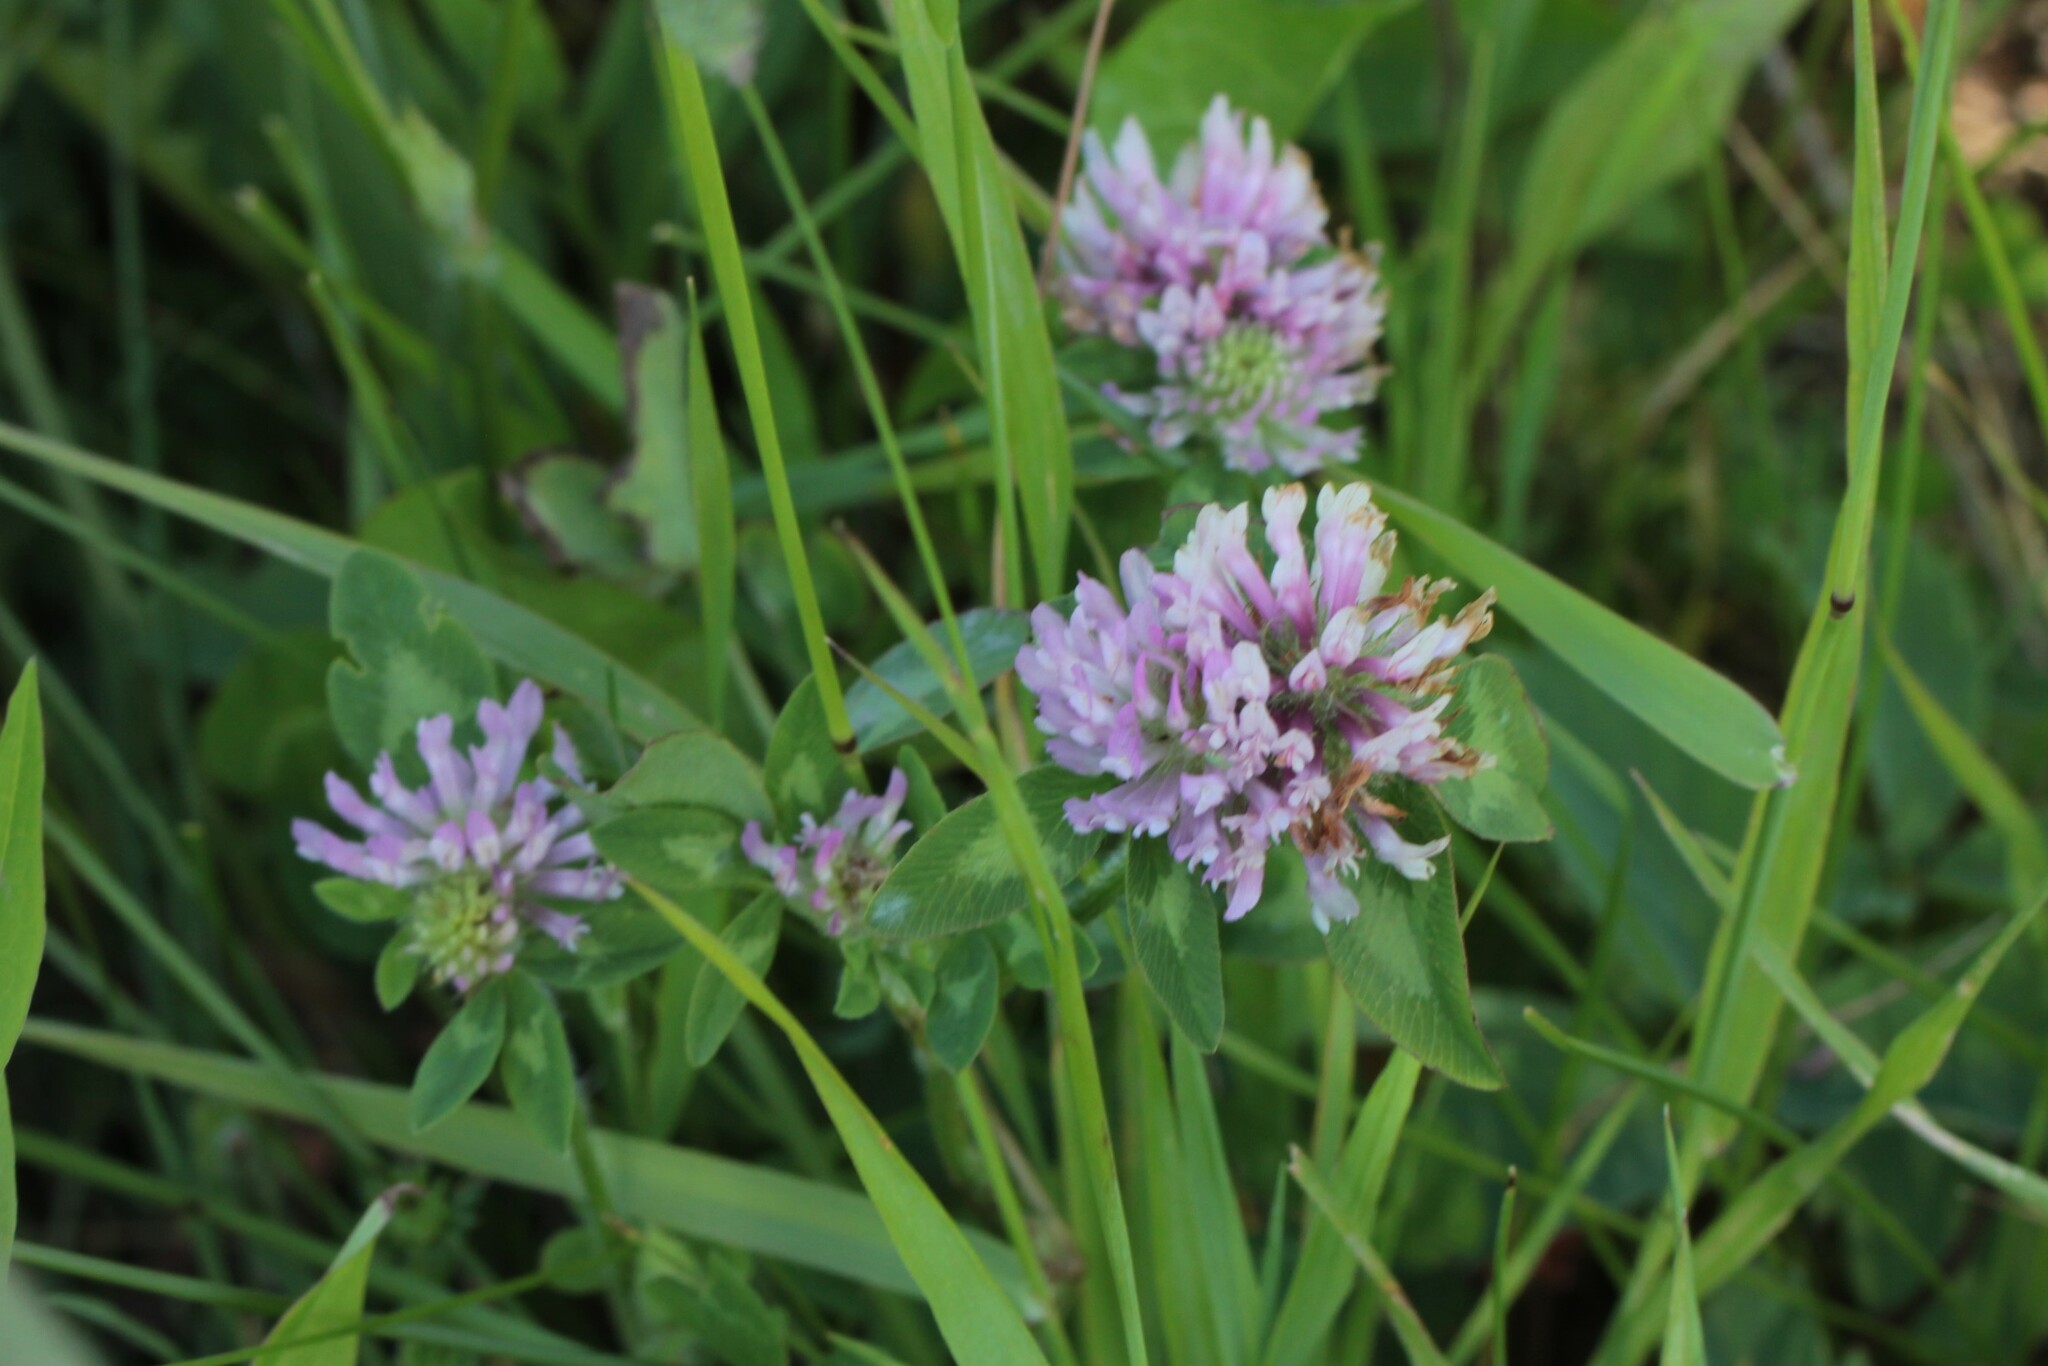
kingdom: Plantae
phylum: Tracheophyta
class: Magnoliopsida
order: Fabales
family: Fabaceae
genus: Trifolium
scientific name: Trifolium pratense
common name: Red clover
